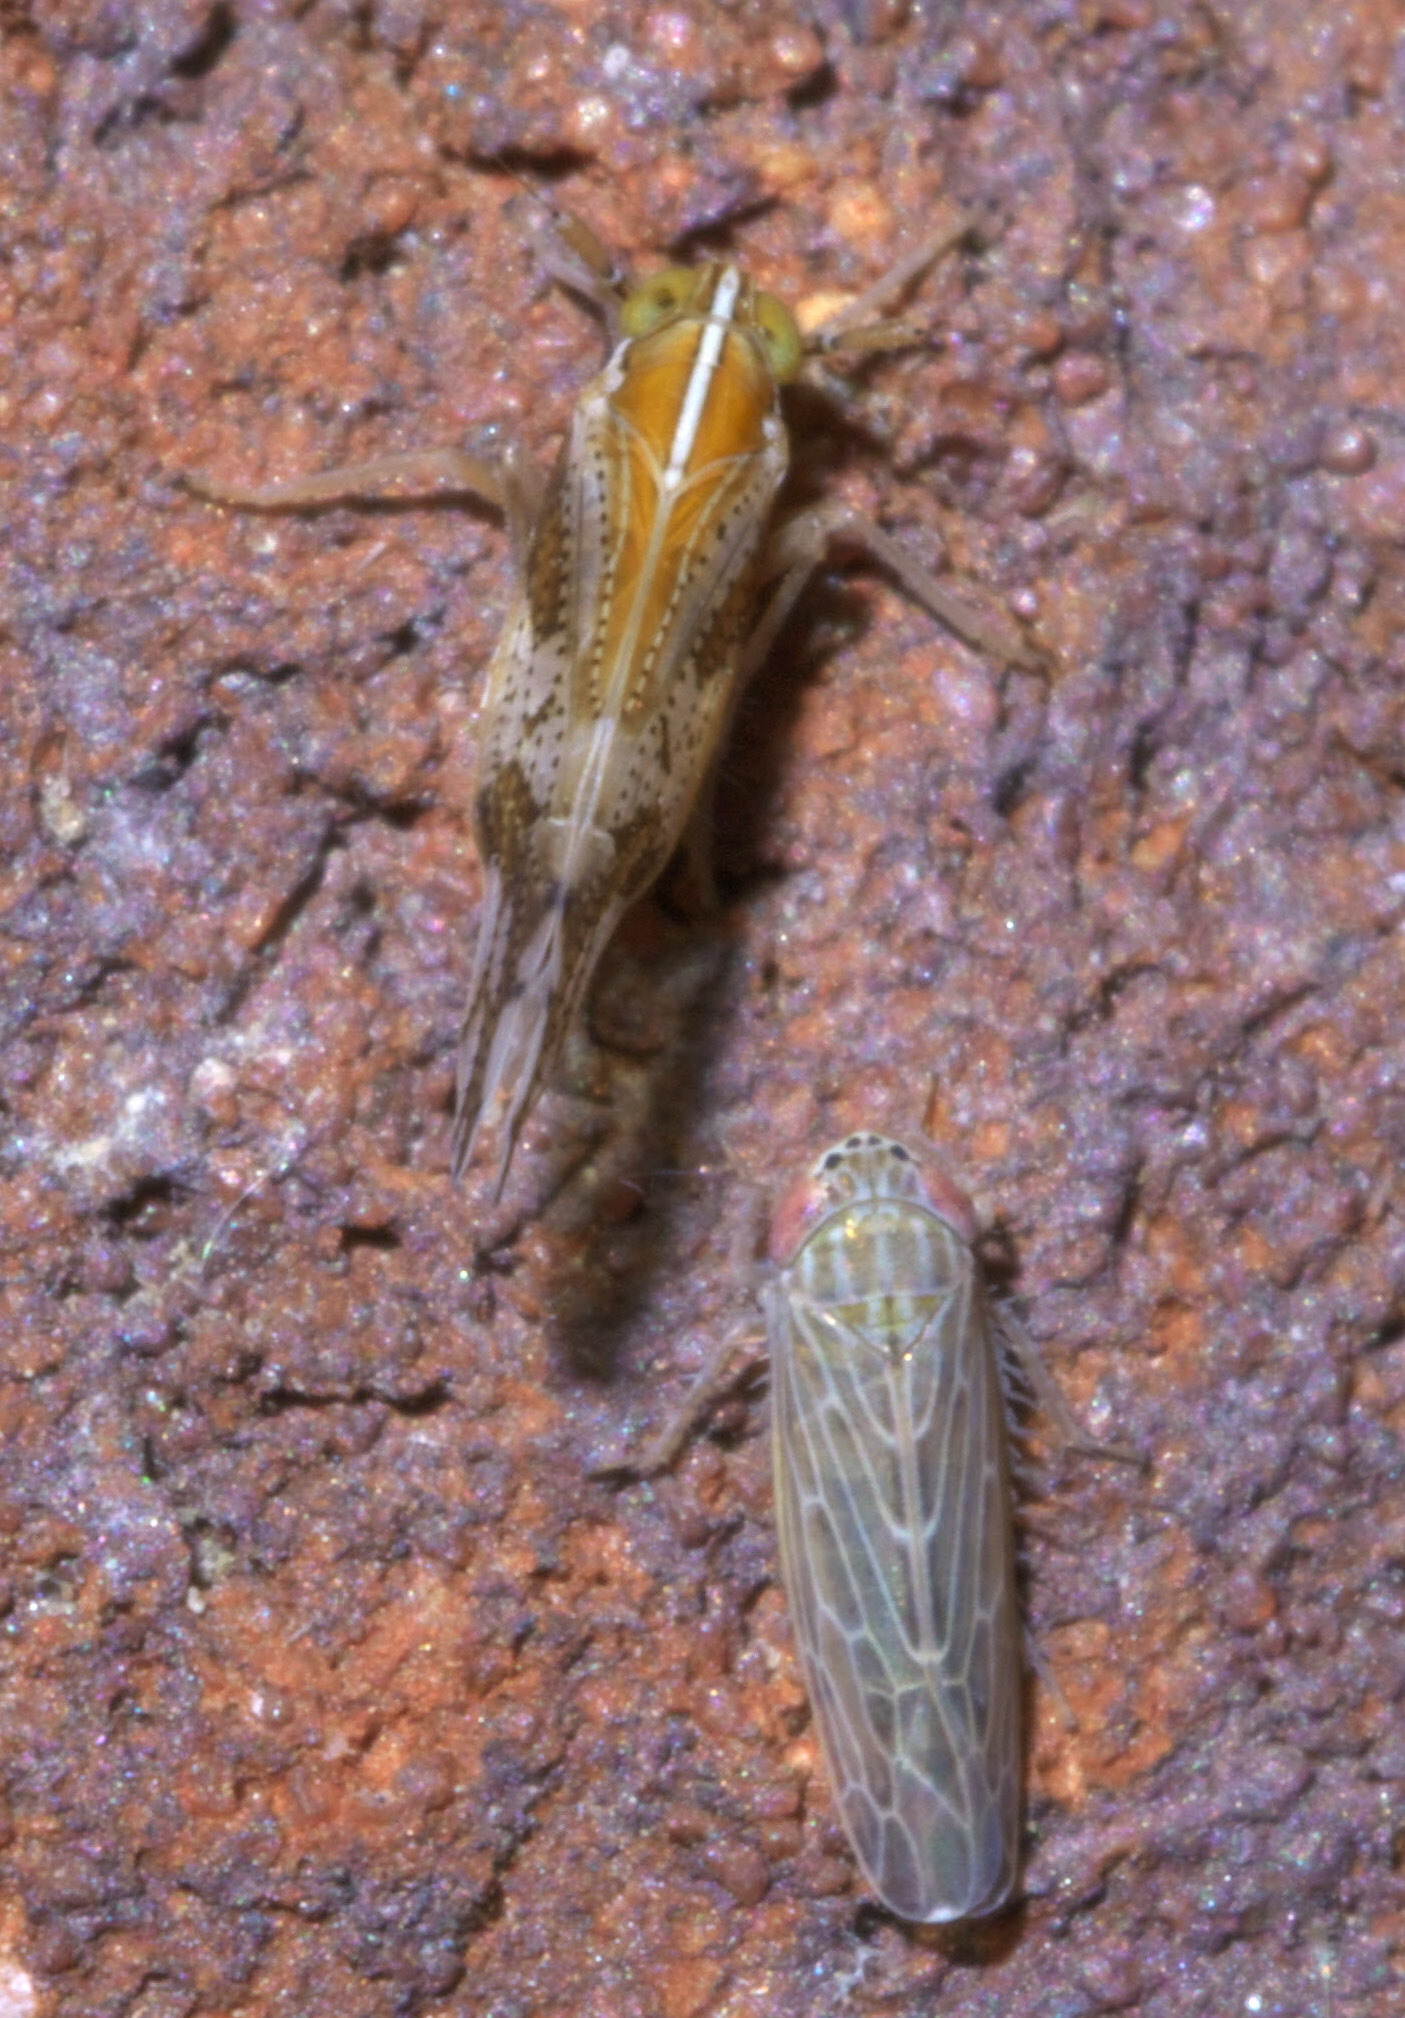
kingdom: Animalia
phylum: Arthropoda
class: Insecta
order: Hemiptera
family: Delphacidae
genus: Liburniella
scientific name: Liburniella ornata
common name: Ornate planthopper
